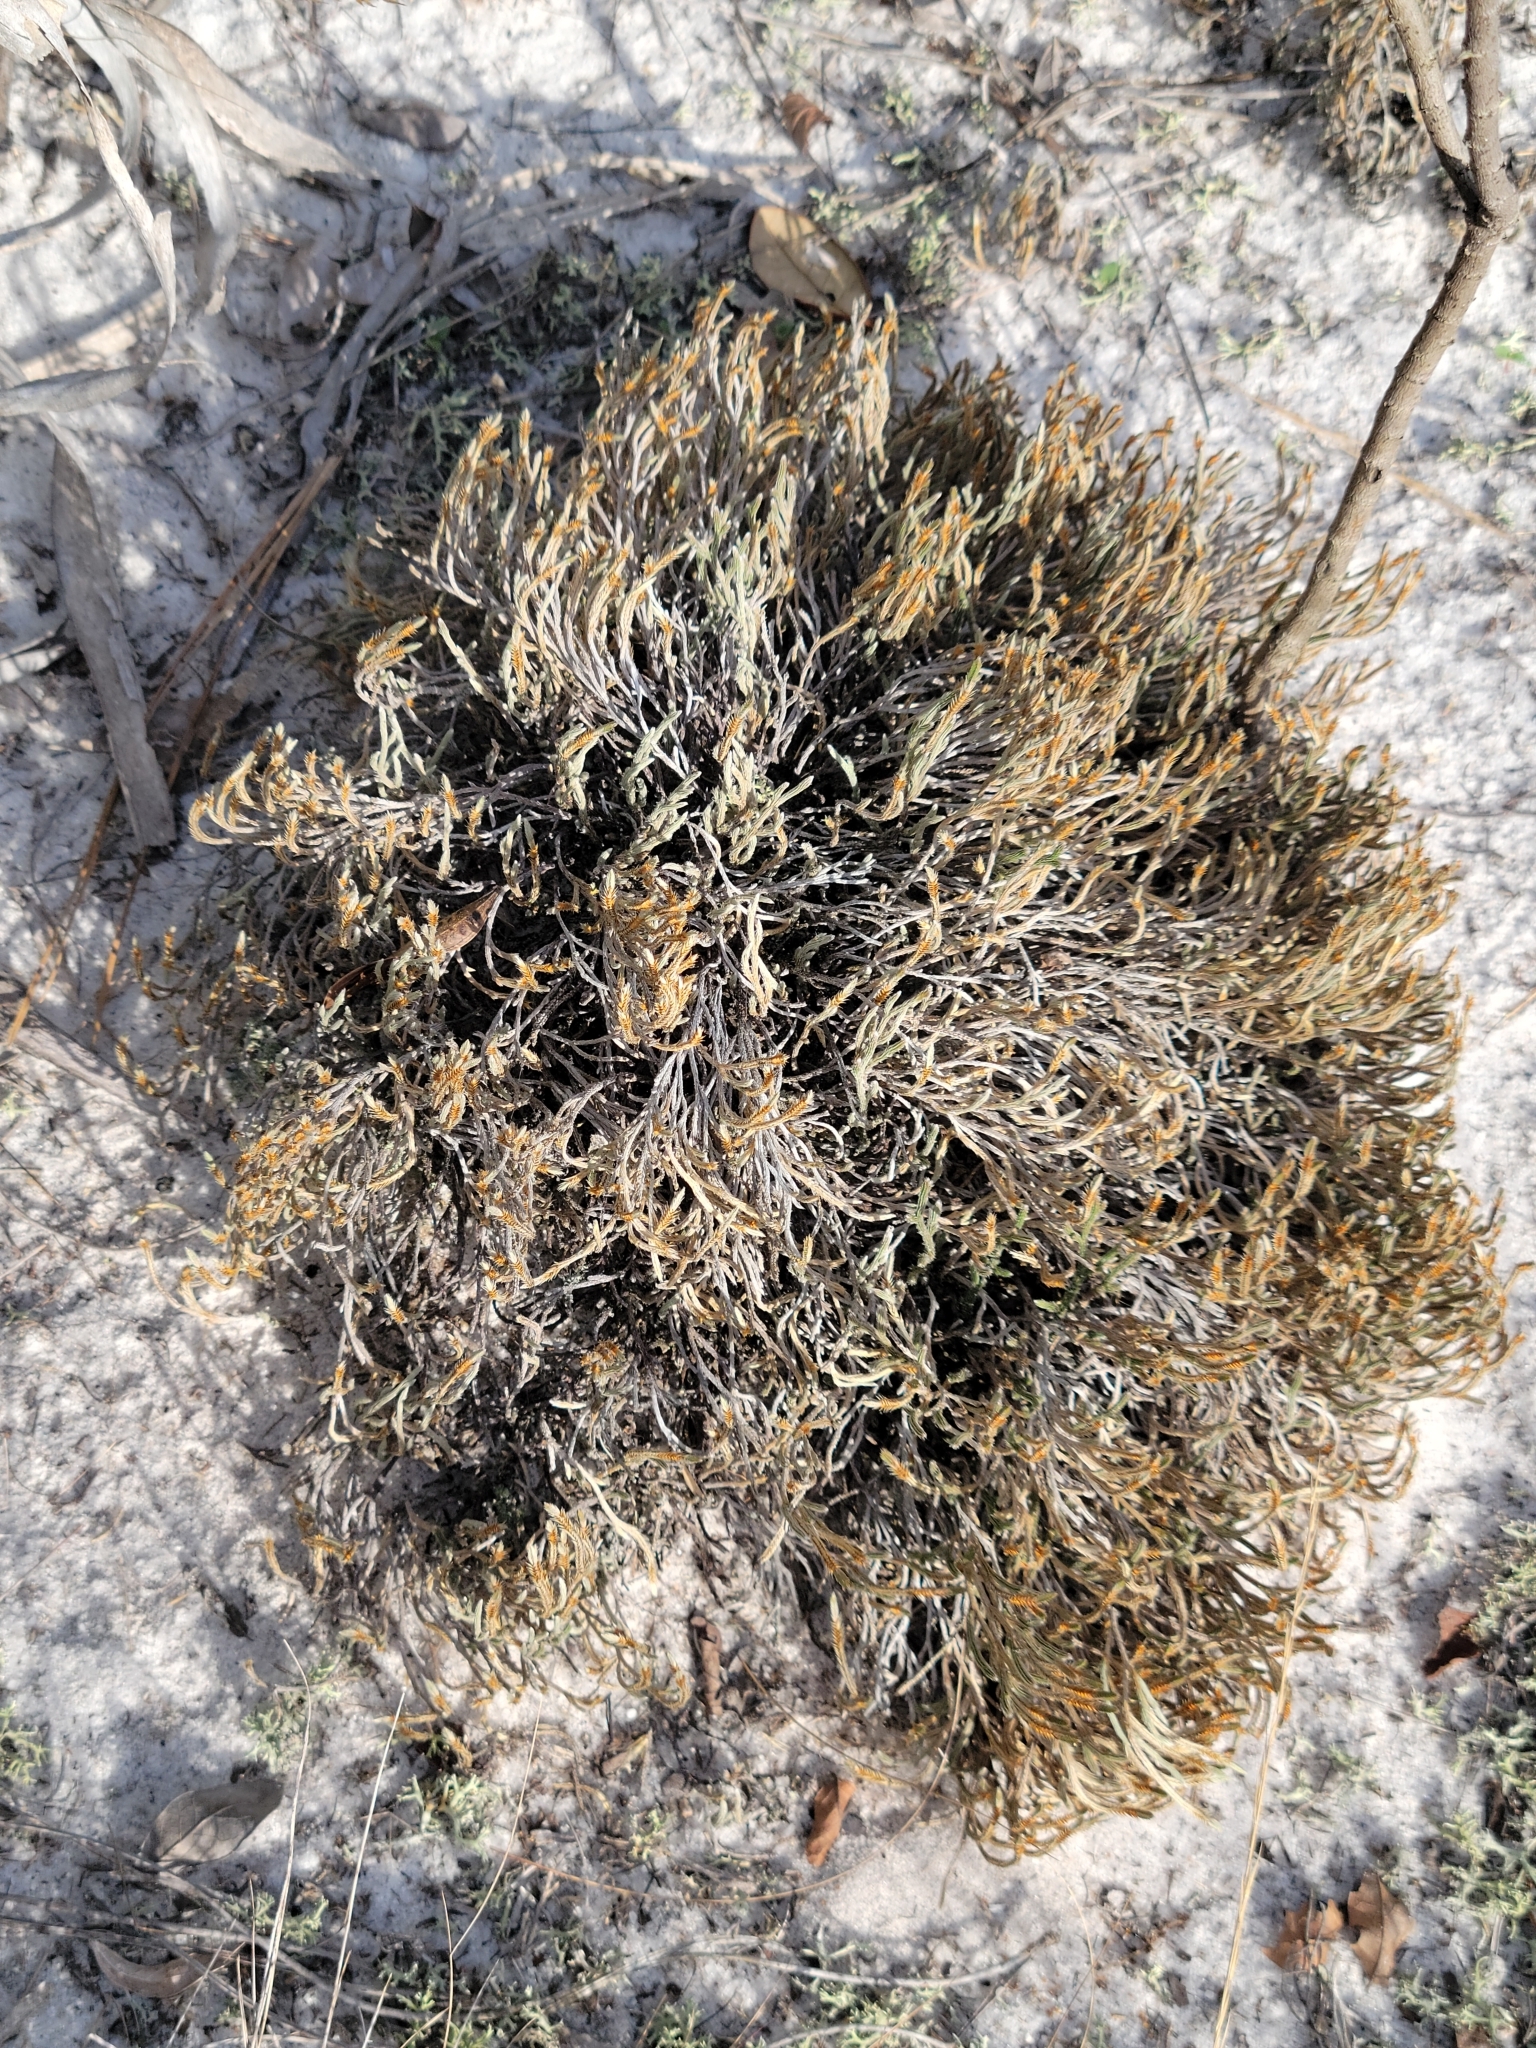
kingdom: Plantae
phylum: Tracheophyta
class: Lycopodiopsida
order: Selaginellales
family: Selaginellaceae
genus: Selaginella
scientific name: Selaginella arenicola
